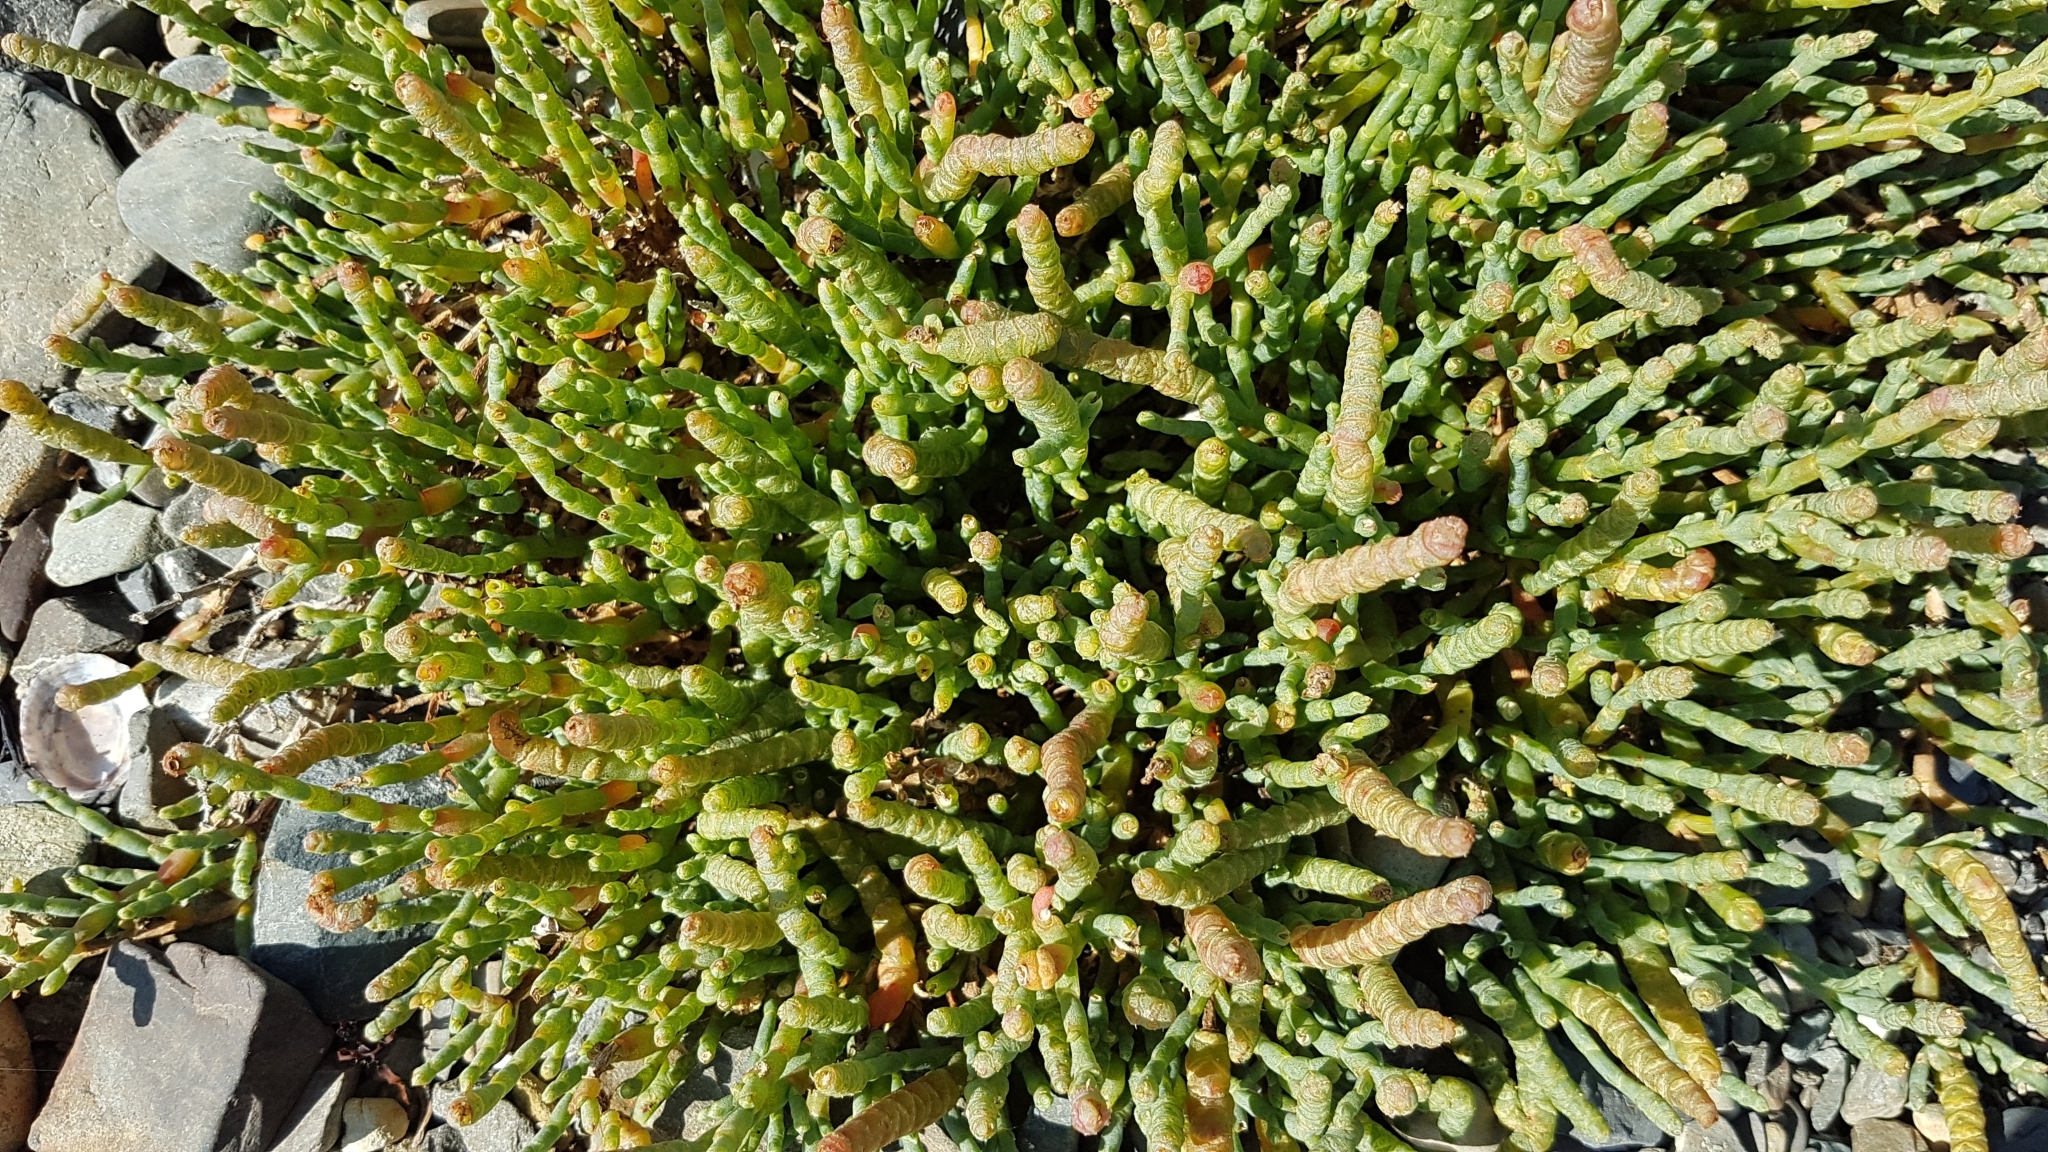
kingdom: Plantae
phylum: Tracheophyta
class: Magnoliopsida
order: Caryophyllales
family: Amaranthaceae
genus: Salicornia
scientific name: Salicornia quinqueflora
